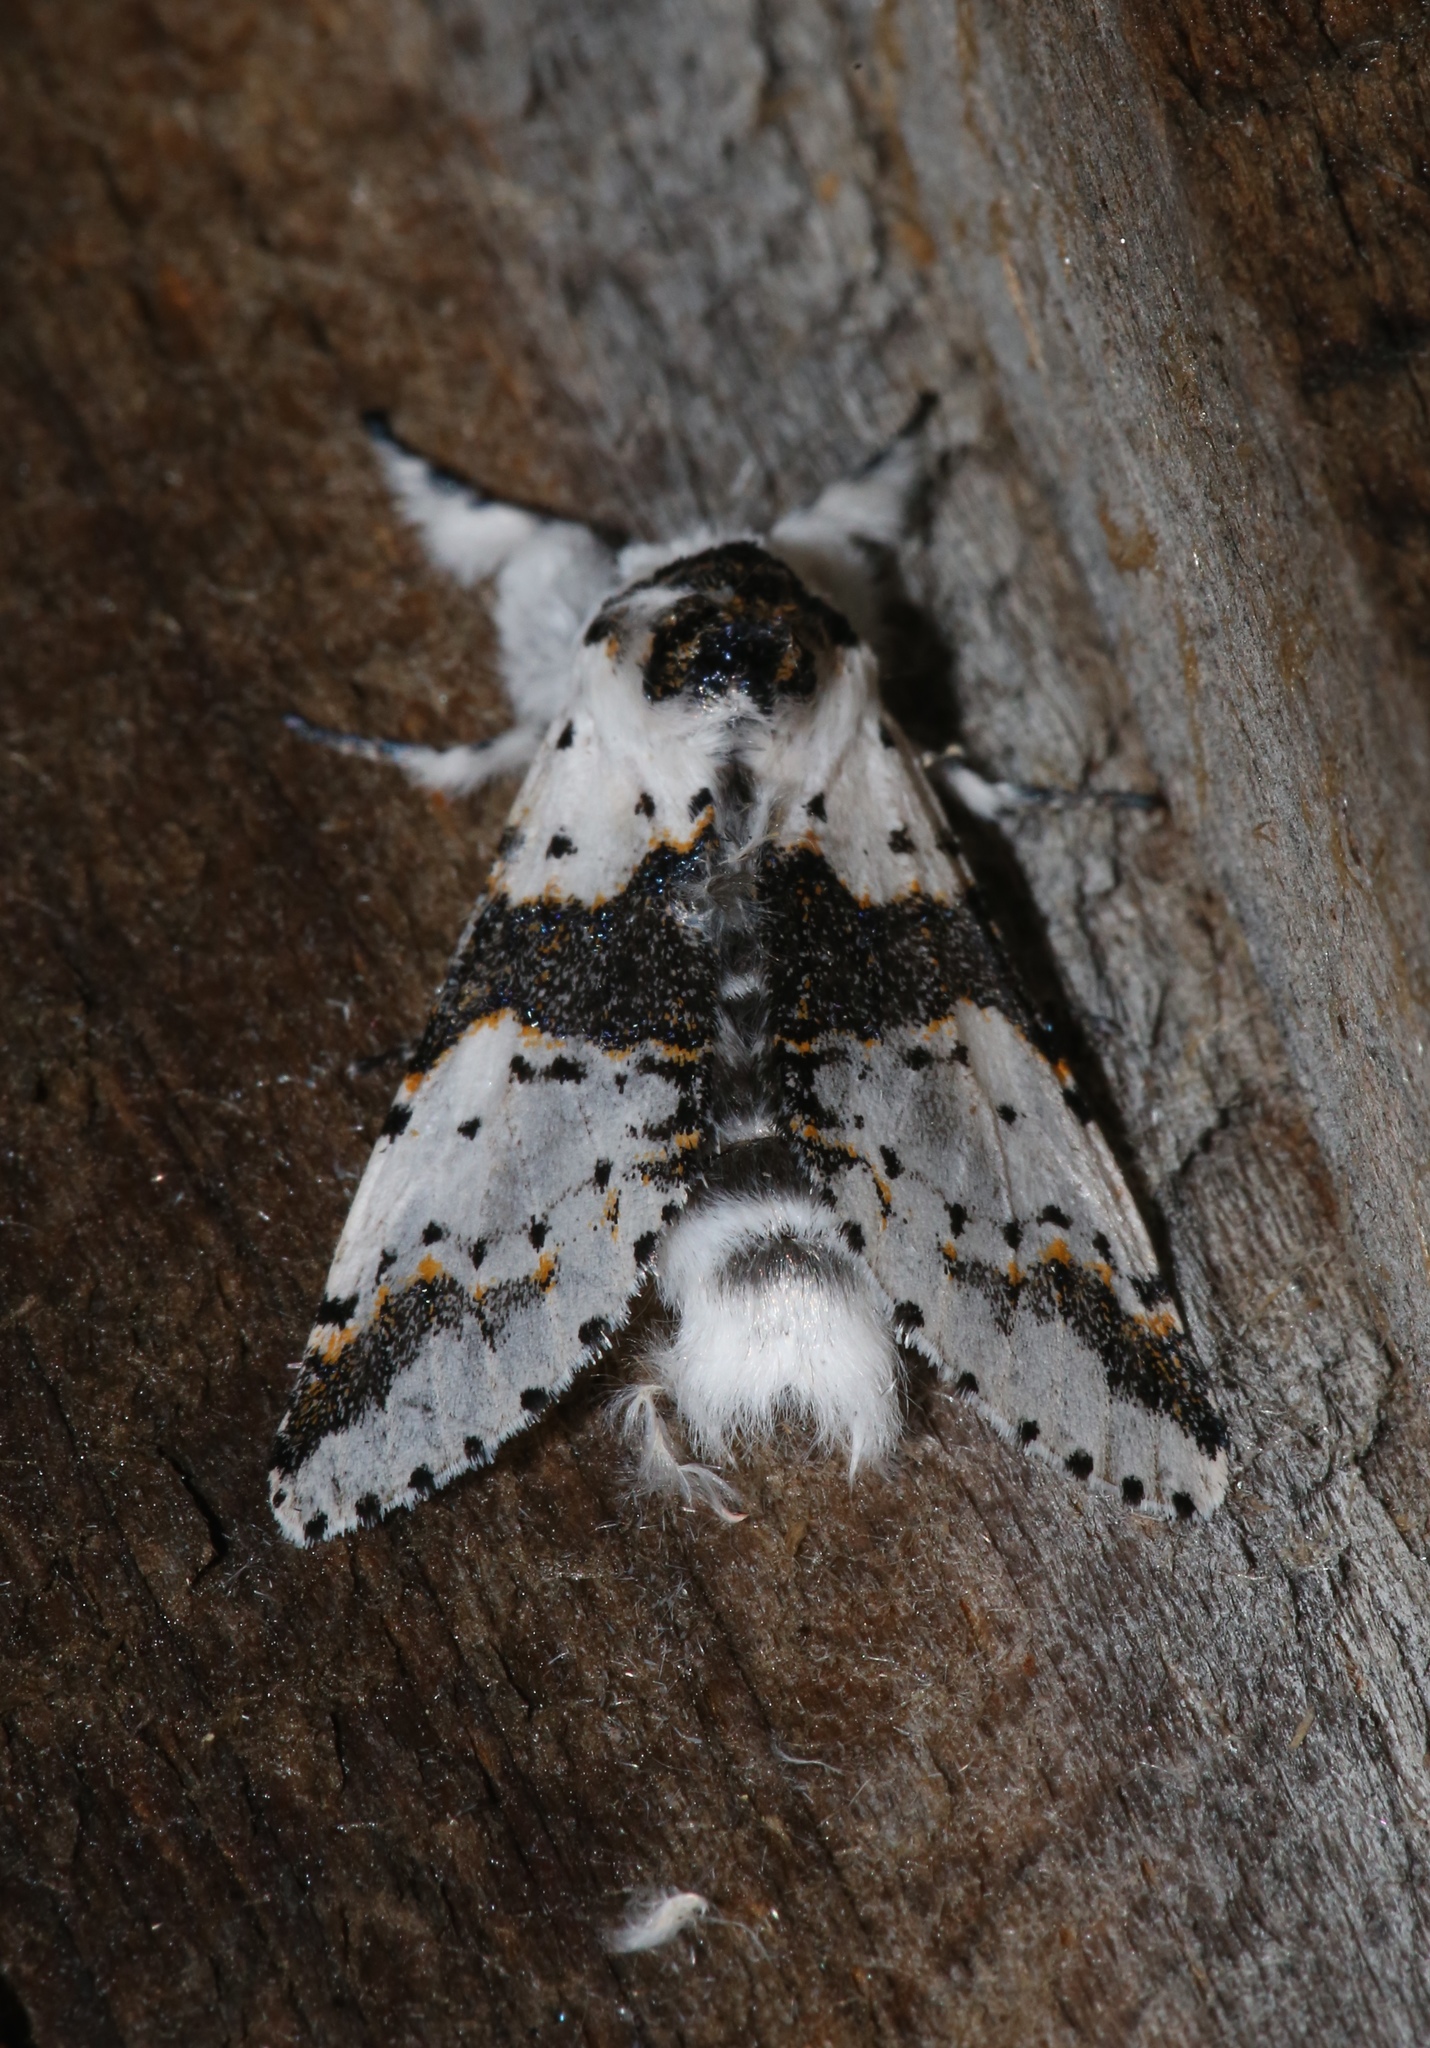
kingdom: Animalia
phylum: Arthropoda
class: Insecta
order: Lepidoptera
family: Notodontidae
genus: Furcula
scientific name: Furcula borealis
